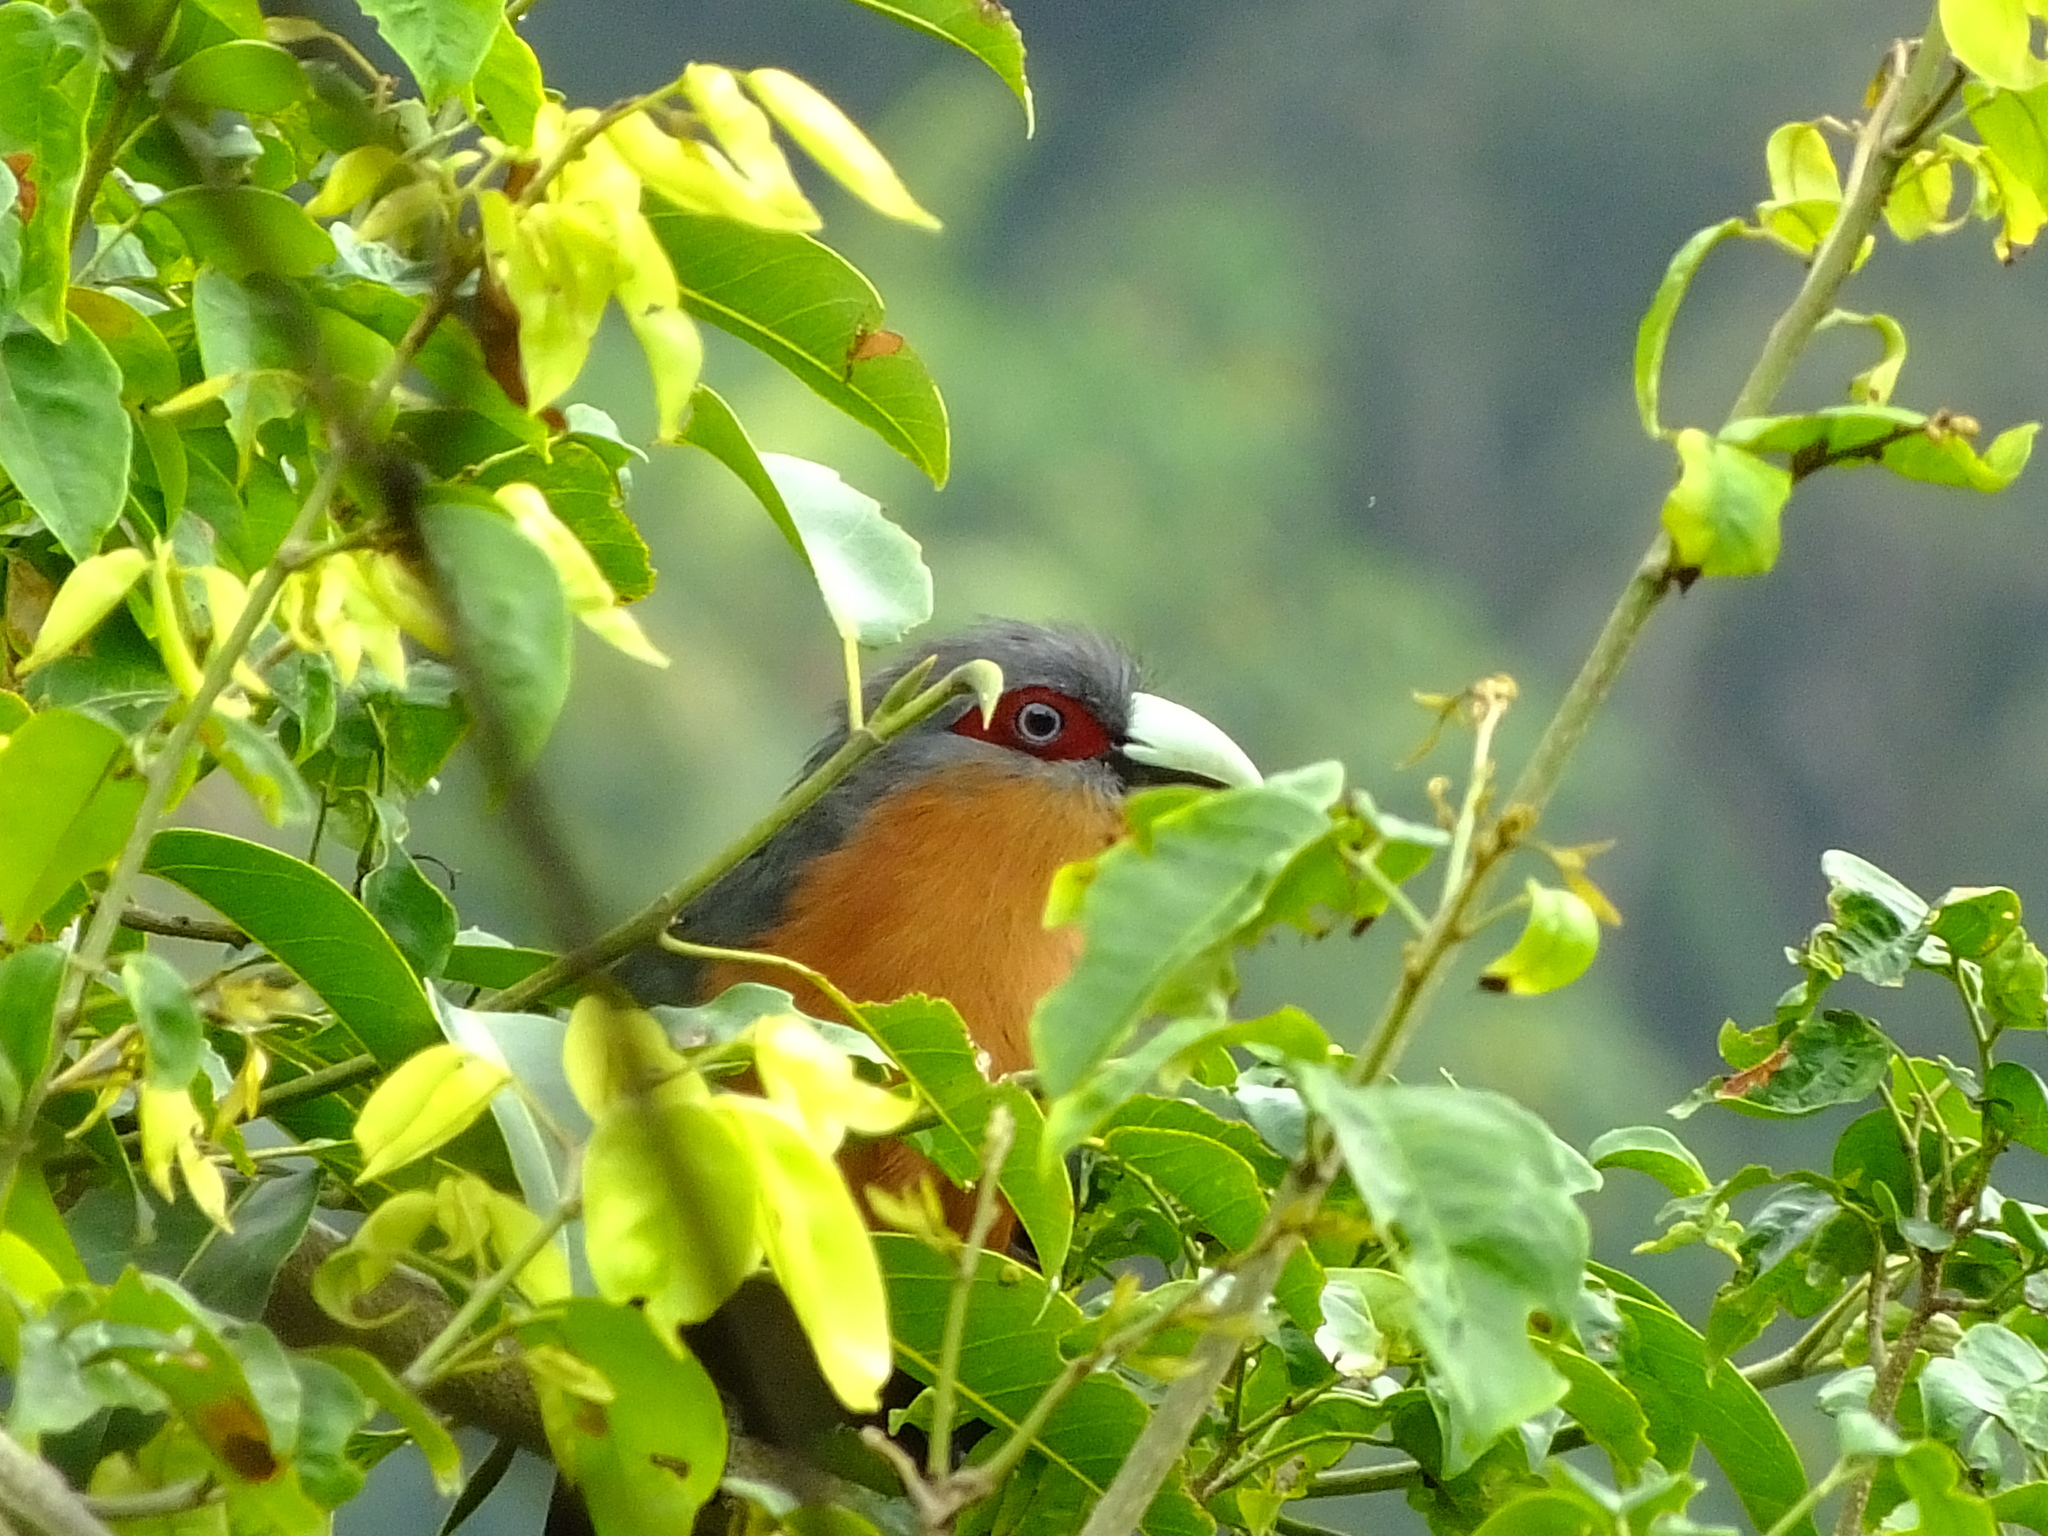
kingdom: Animalia
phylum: Chordata
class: Aves
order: Cuculiformes
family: Cuculidae
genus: Zanclostomus
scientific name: Zanclostomus curvirostris
